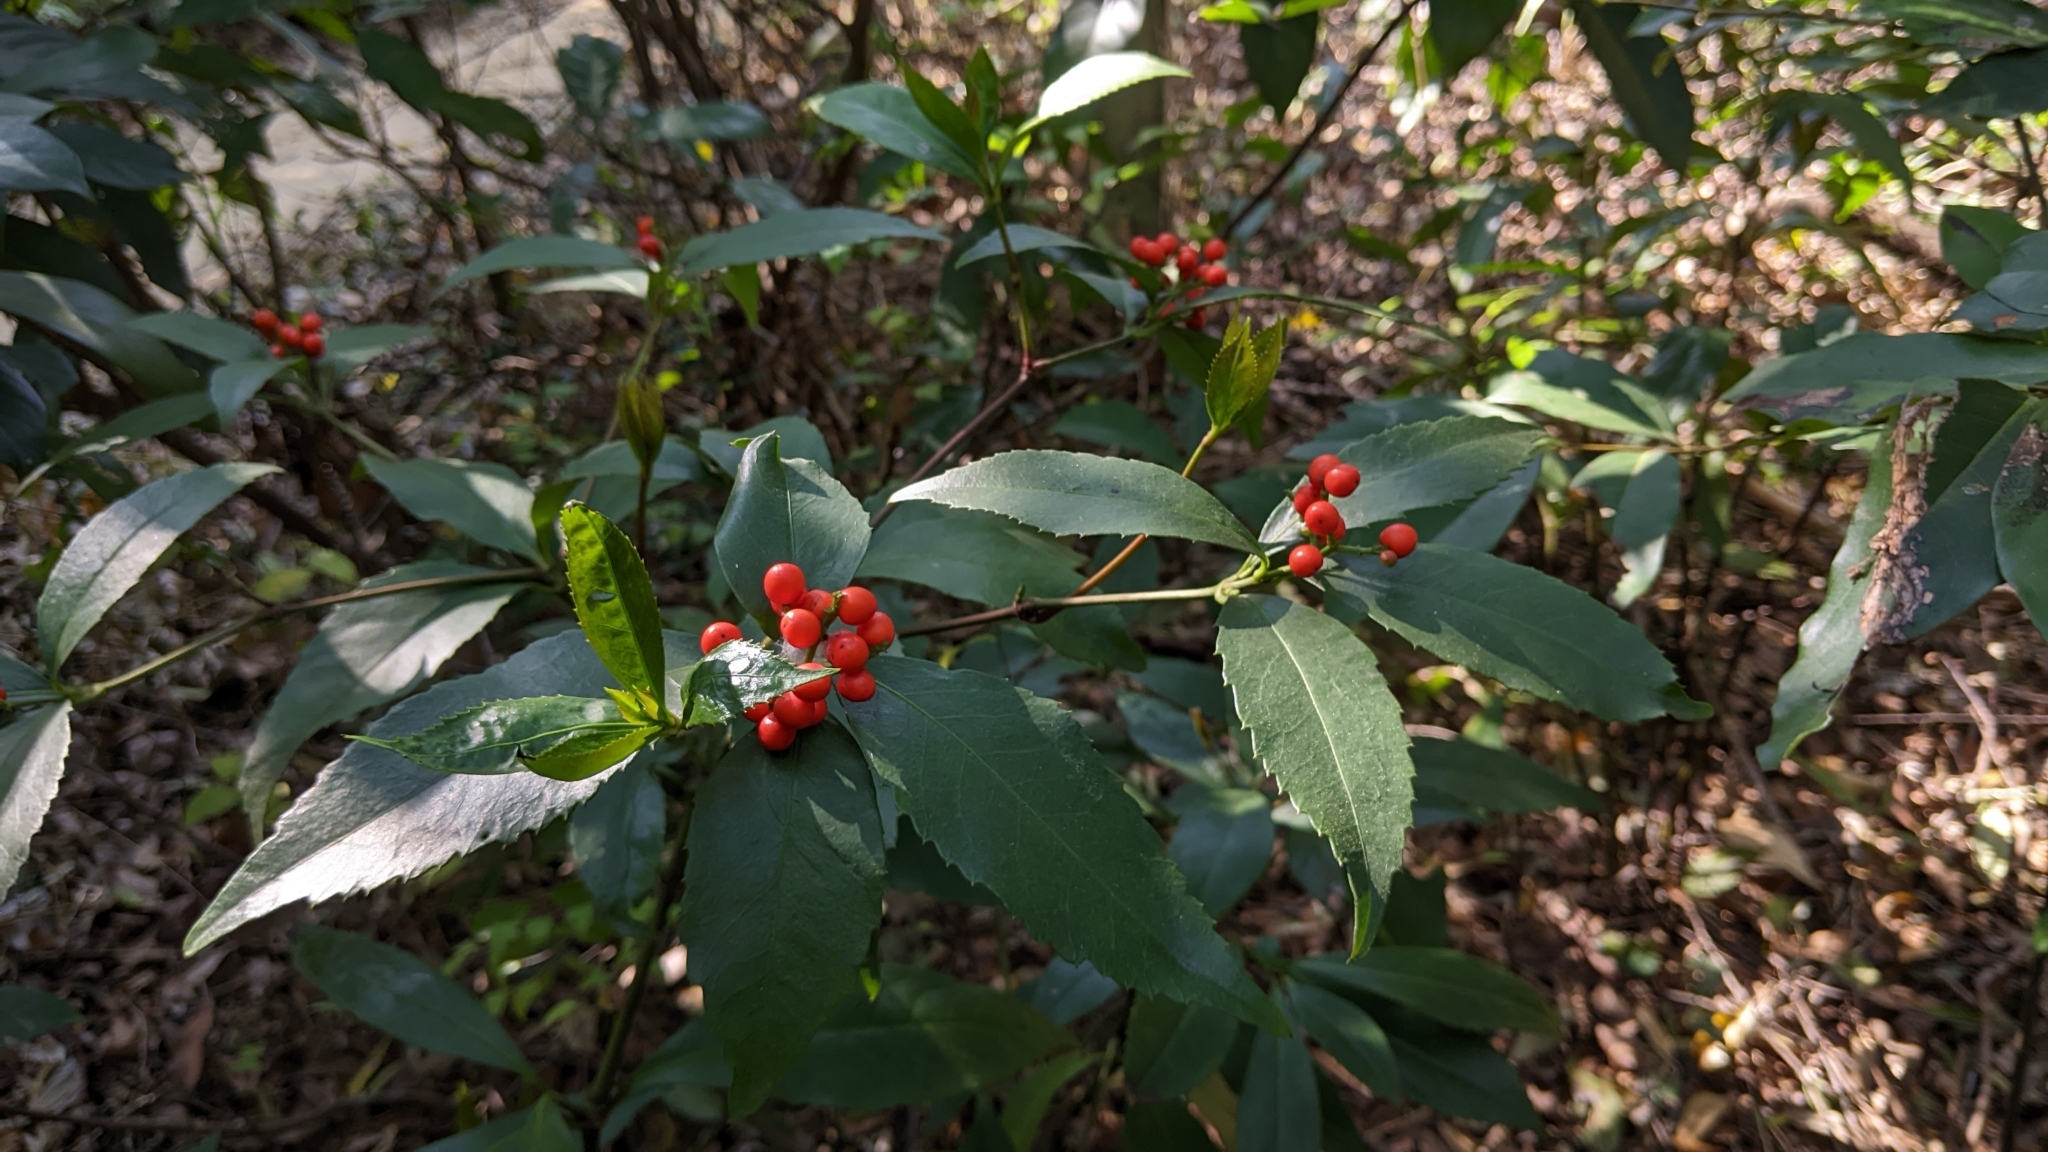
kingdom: Plantae
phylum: Tracheophyta
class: Magnoliopsida
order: Chloranthales
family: Chloranthaceae
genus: Sarcandra
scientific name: Sarcandra glabra
